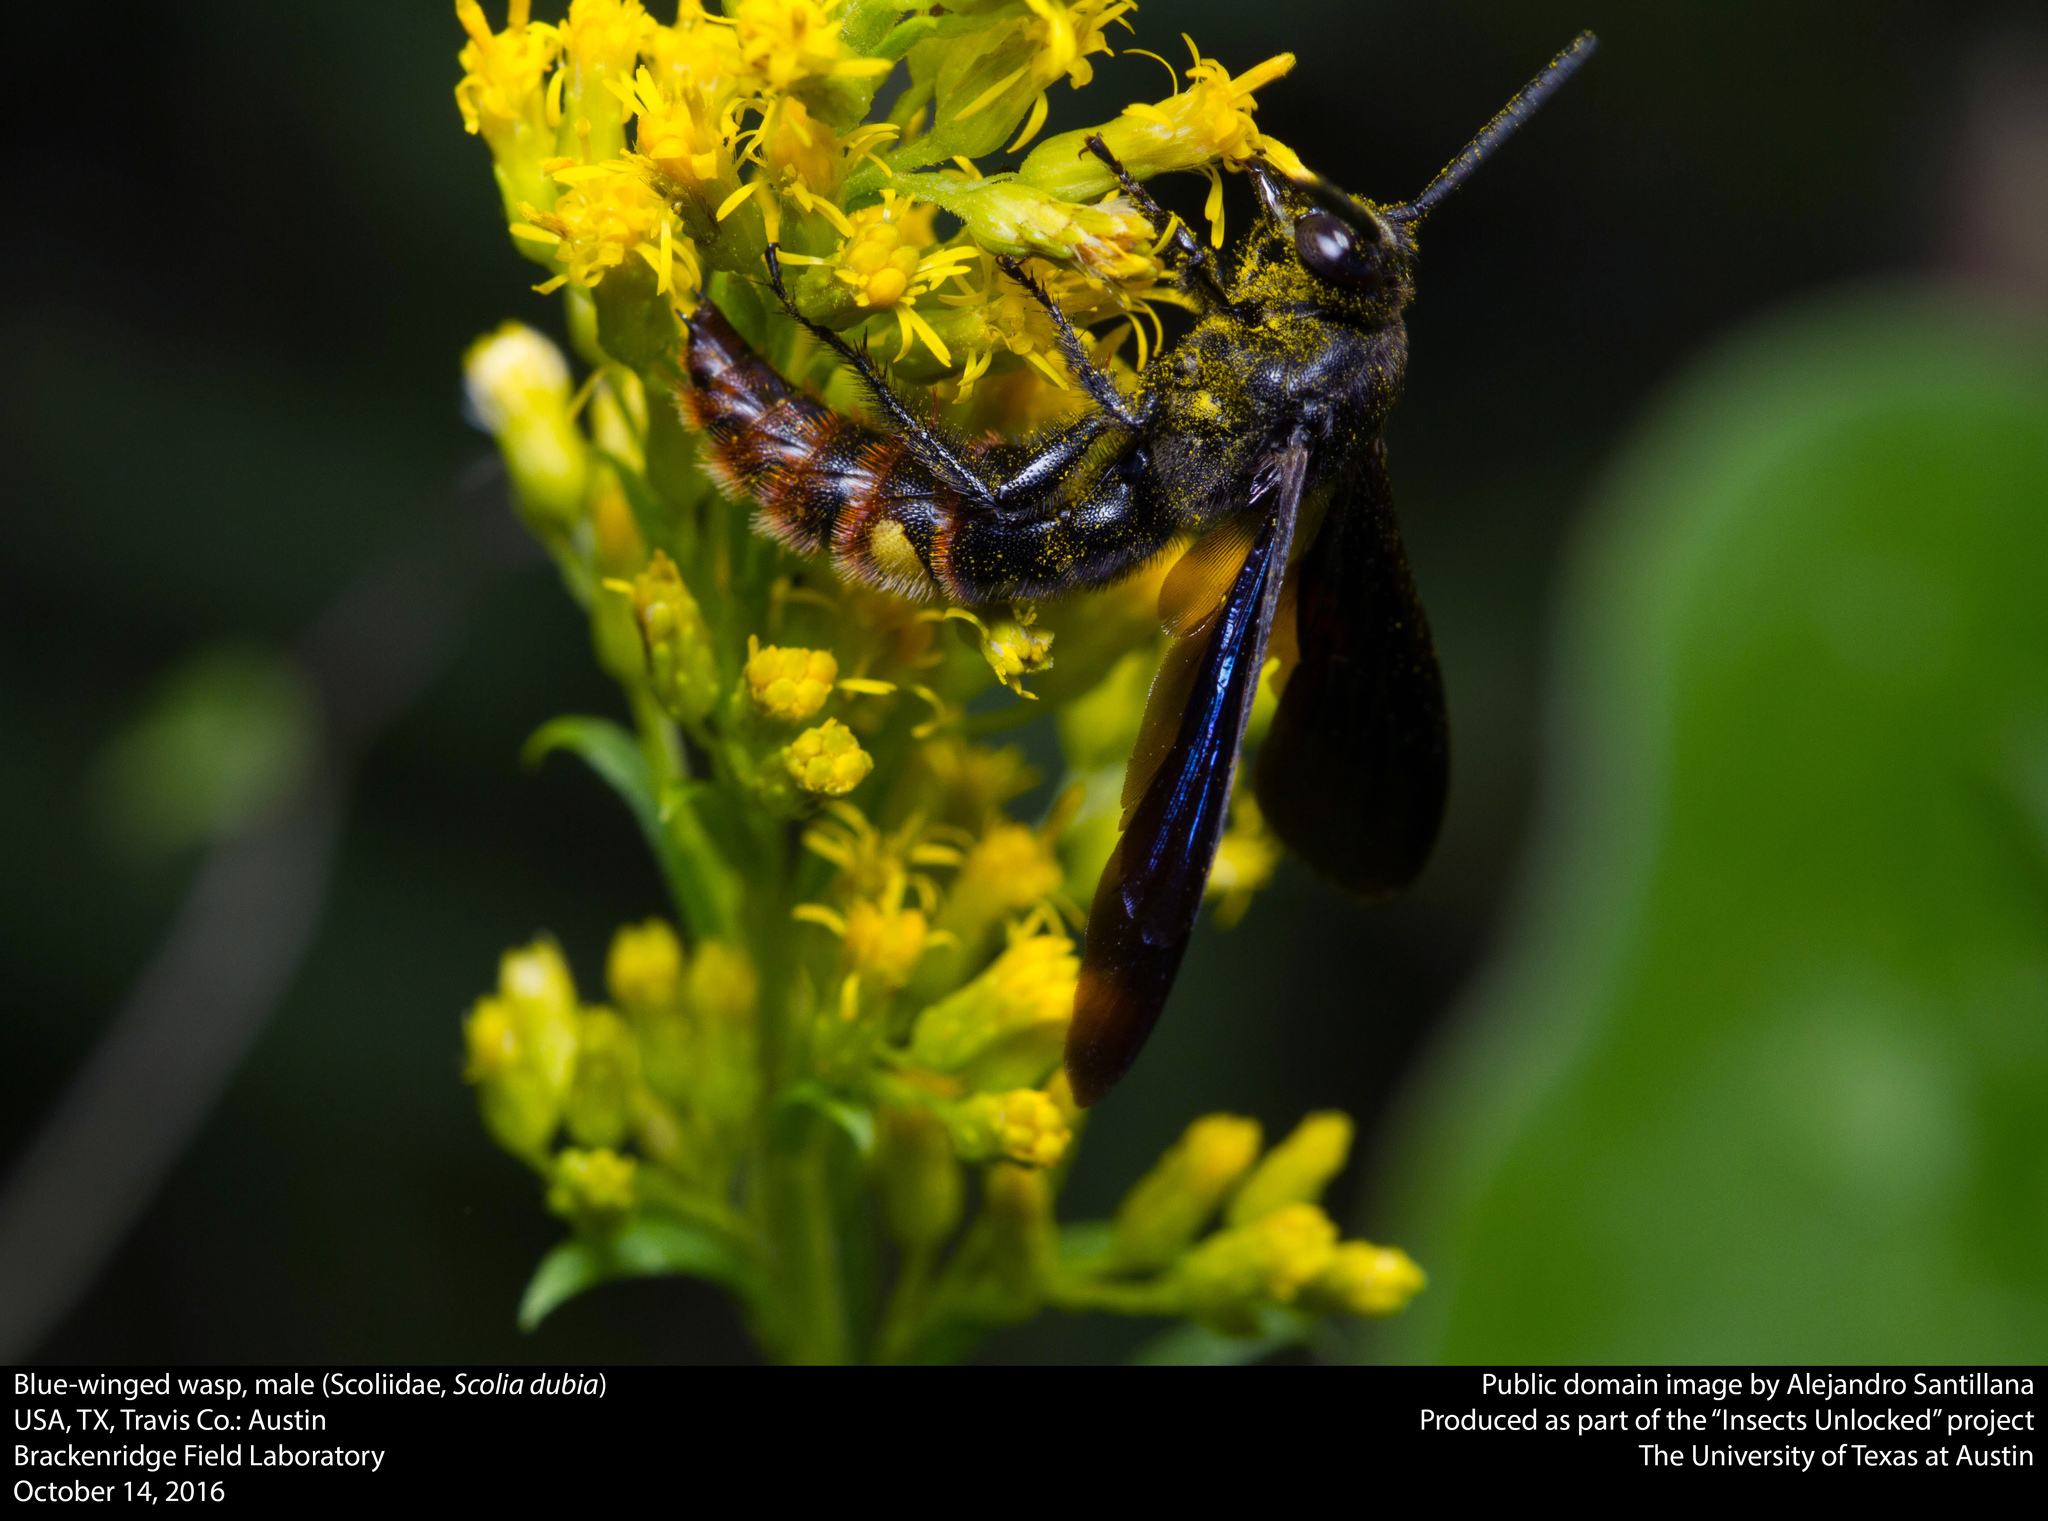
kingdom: Animalia
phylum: Arthropoda
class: Insecta
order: Hymenoptera
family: Scoliidae
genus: Scolia
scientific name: Scolia dubia
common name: Blue-winged scoliid wasp
